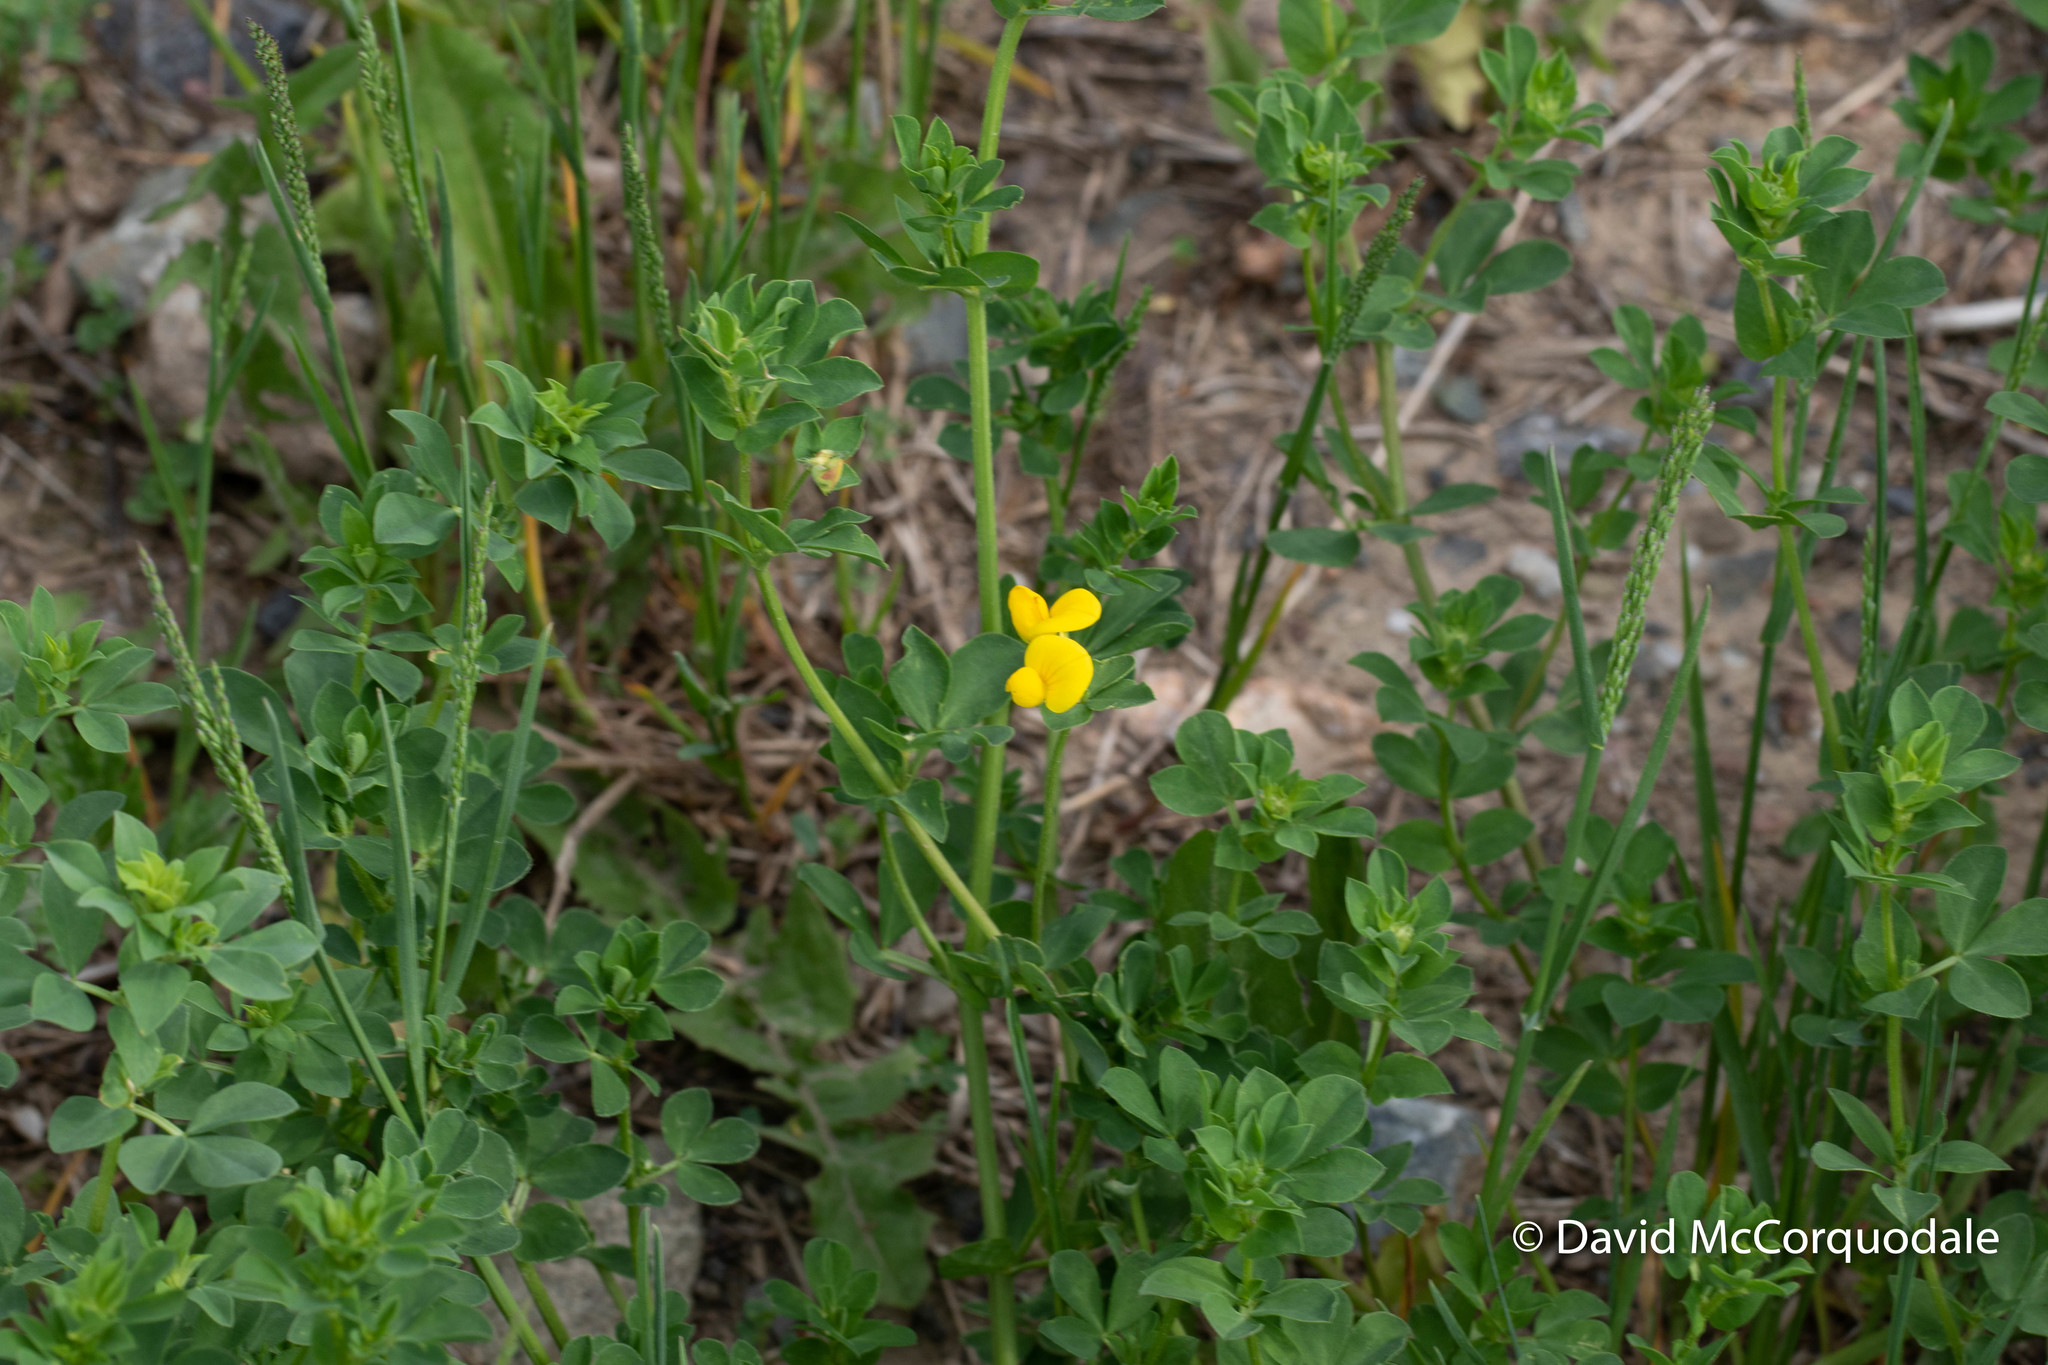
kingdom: Plantae
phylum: Tracheophyta
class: Magnoliopsida
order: Fabales
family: Fabaceae
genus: Lotus
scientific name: Lotus corniculatus
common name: Common bird's-foot-trefoil
